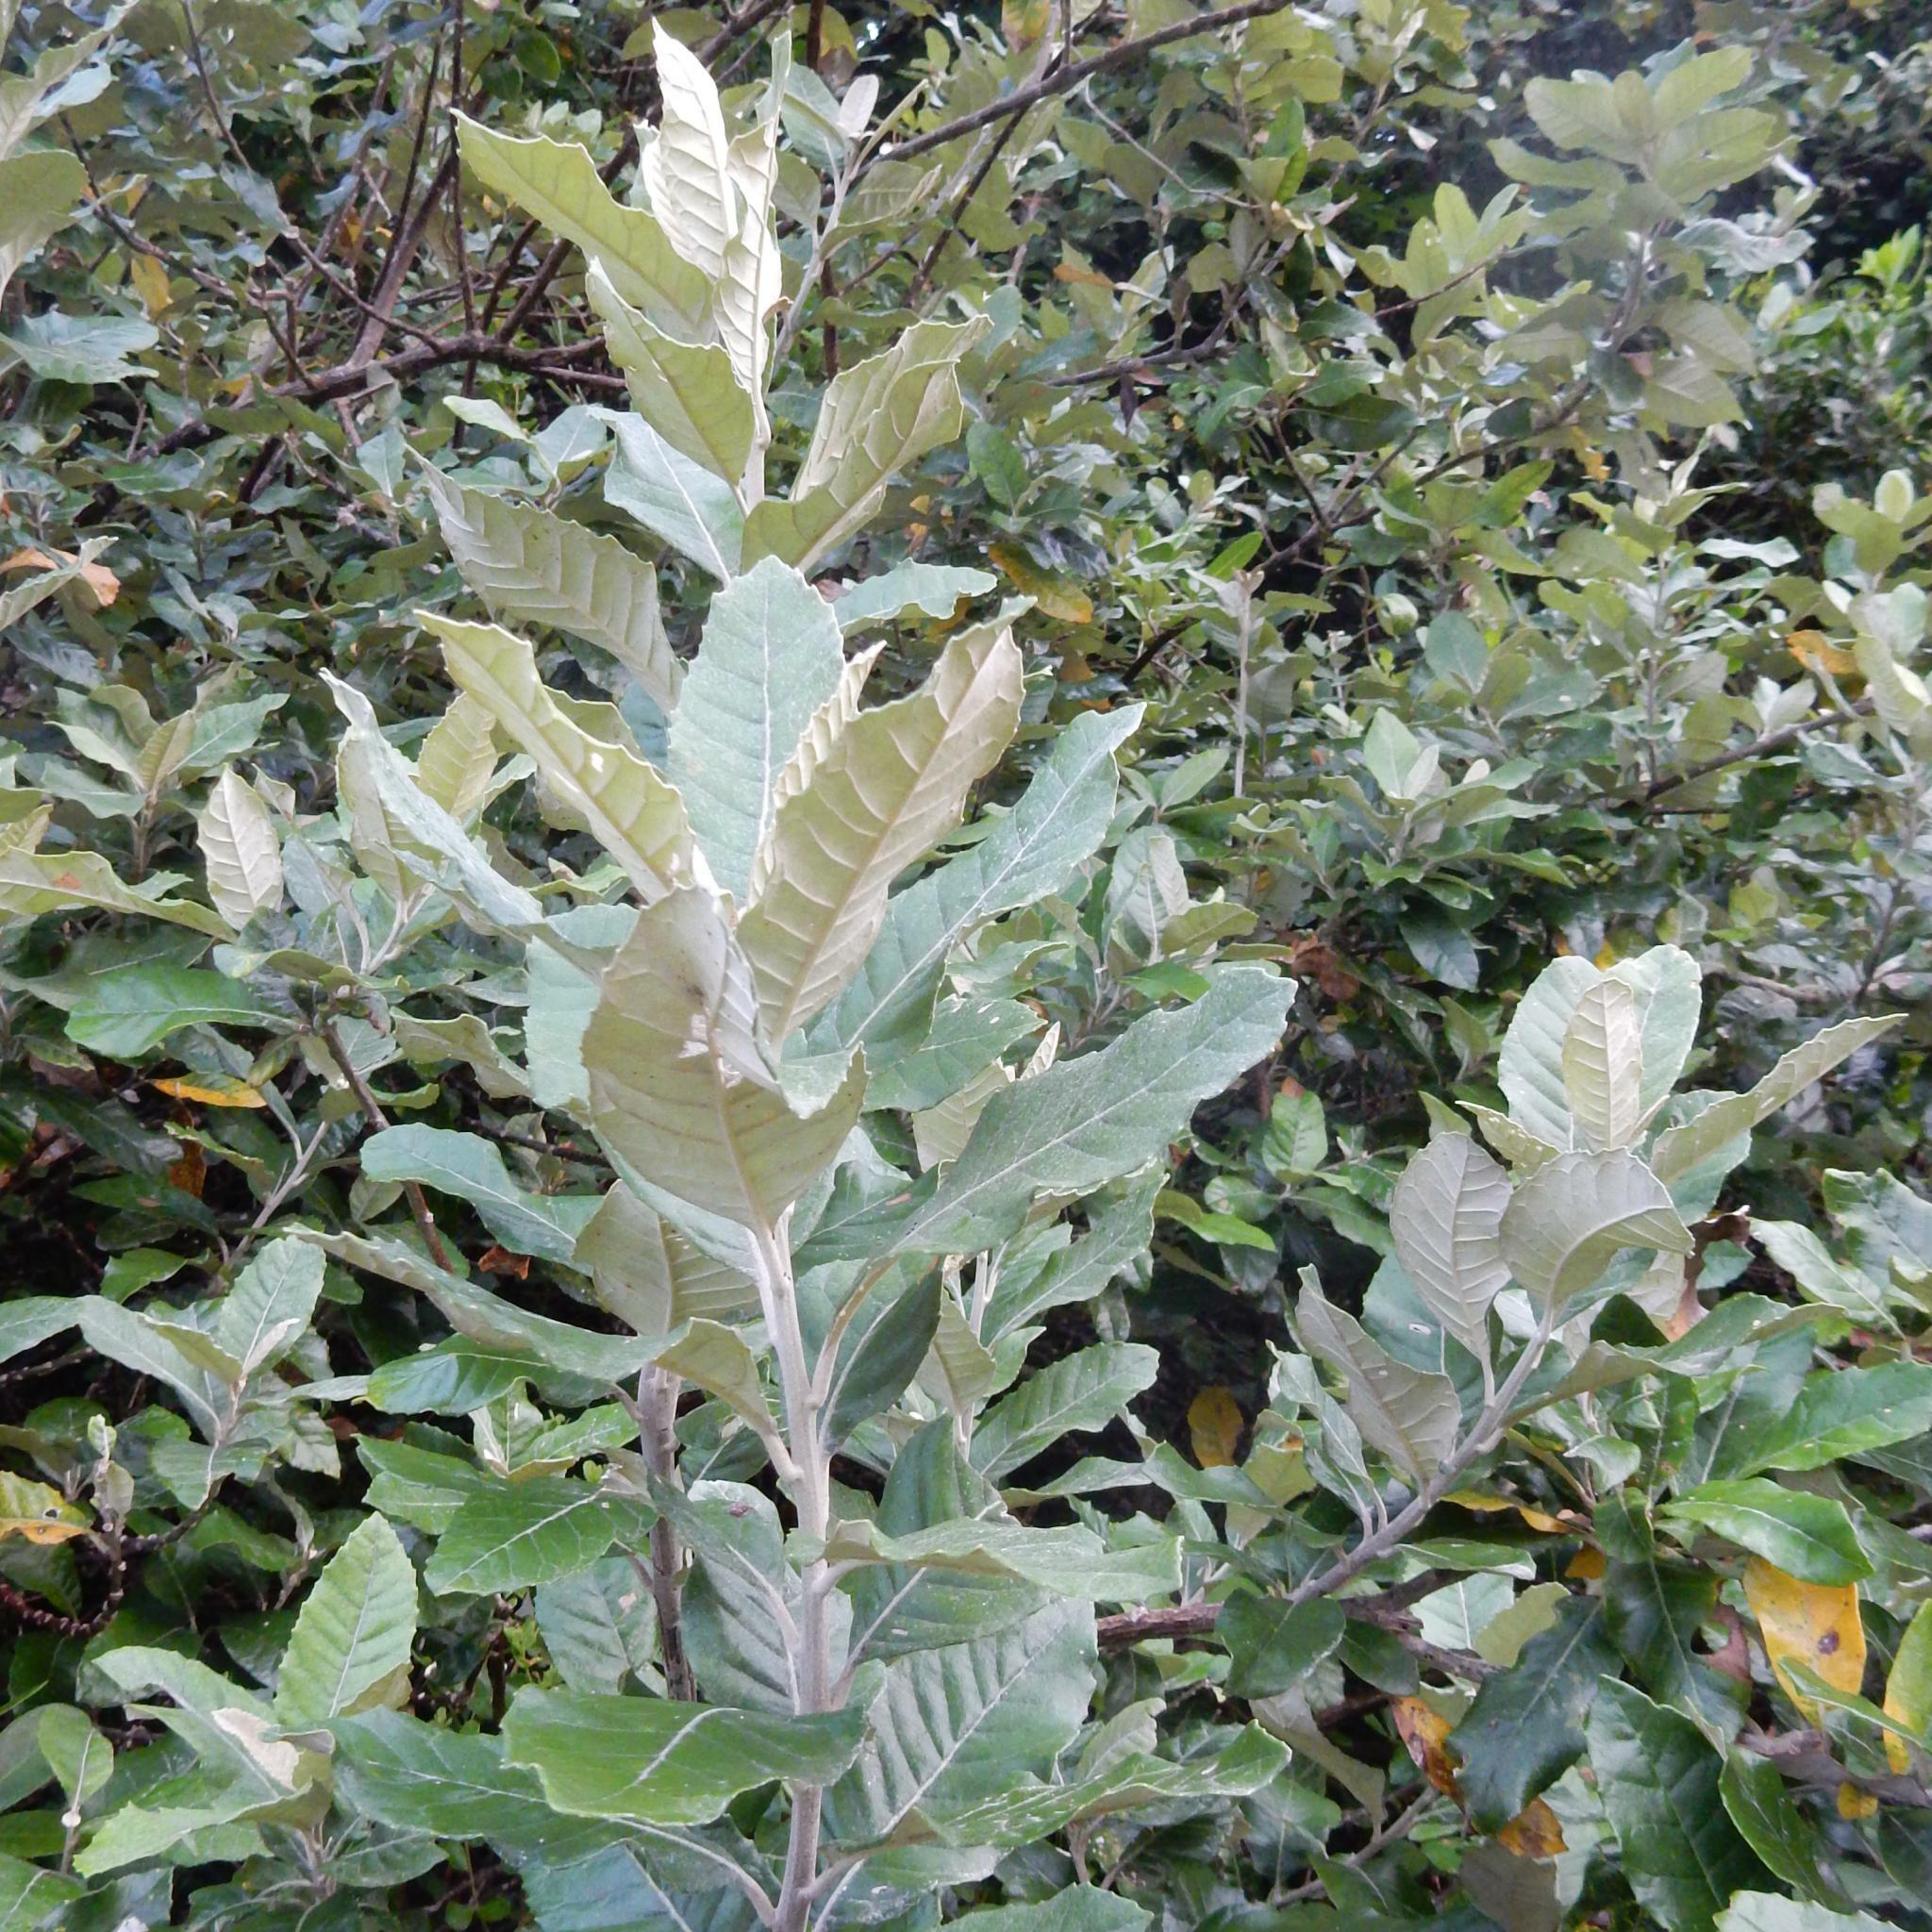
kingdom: Plantae
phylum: Tracheophyta
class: Magnoliopsida
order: Asterales
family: Asteraceae
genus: Brachylaena
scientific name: Brachylaena discolor
